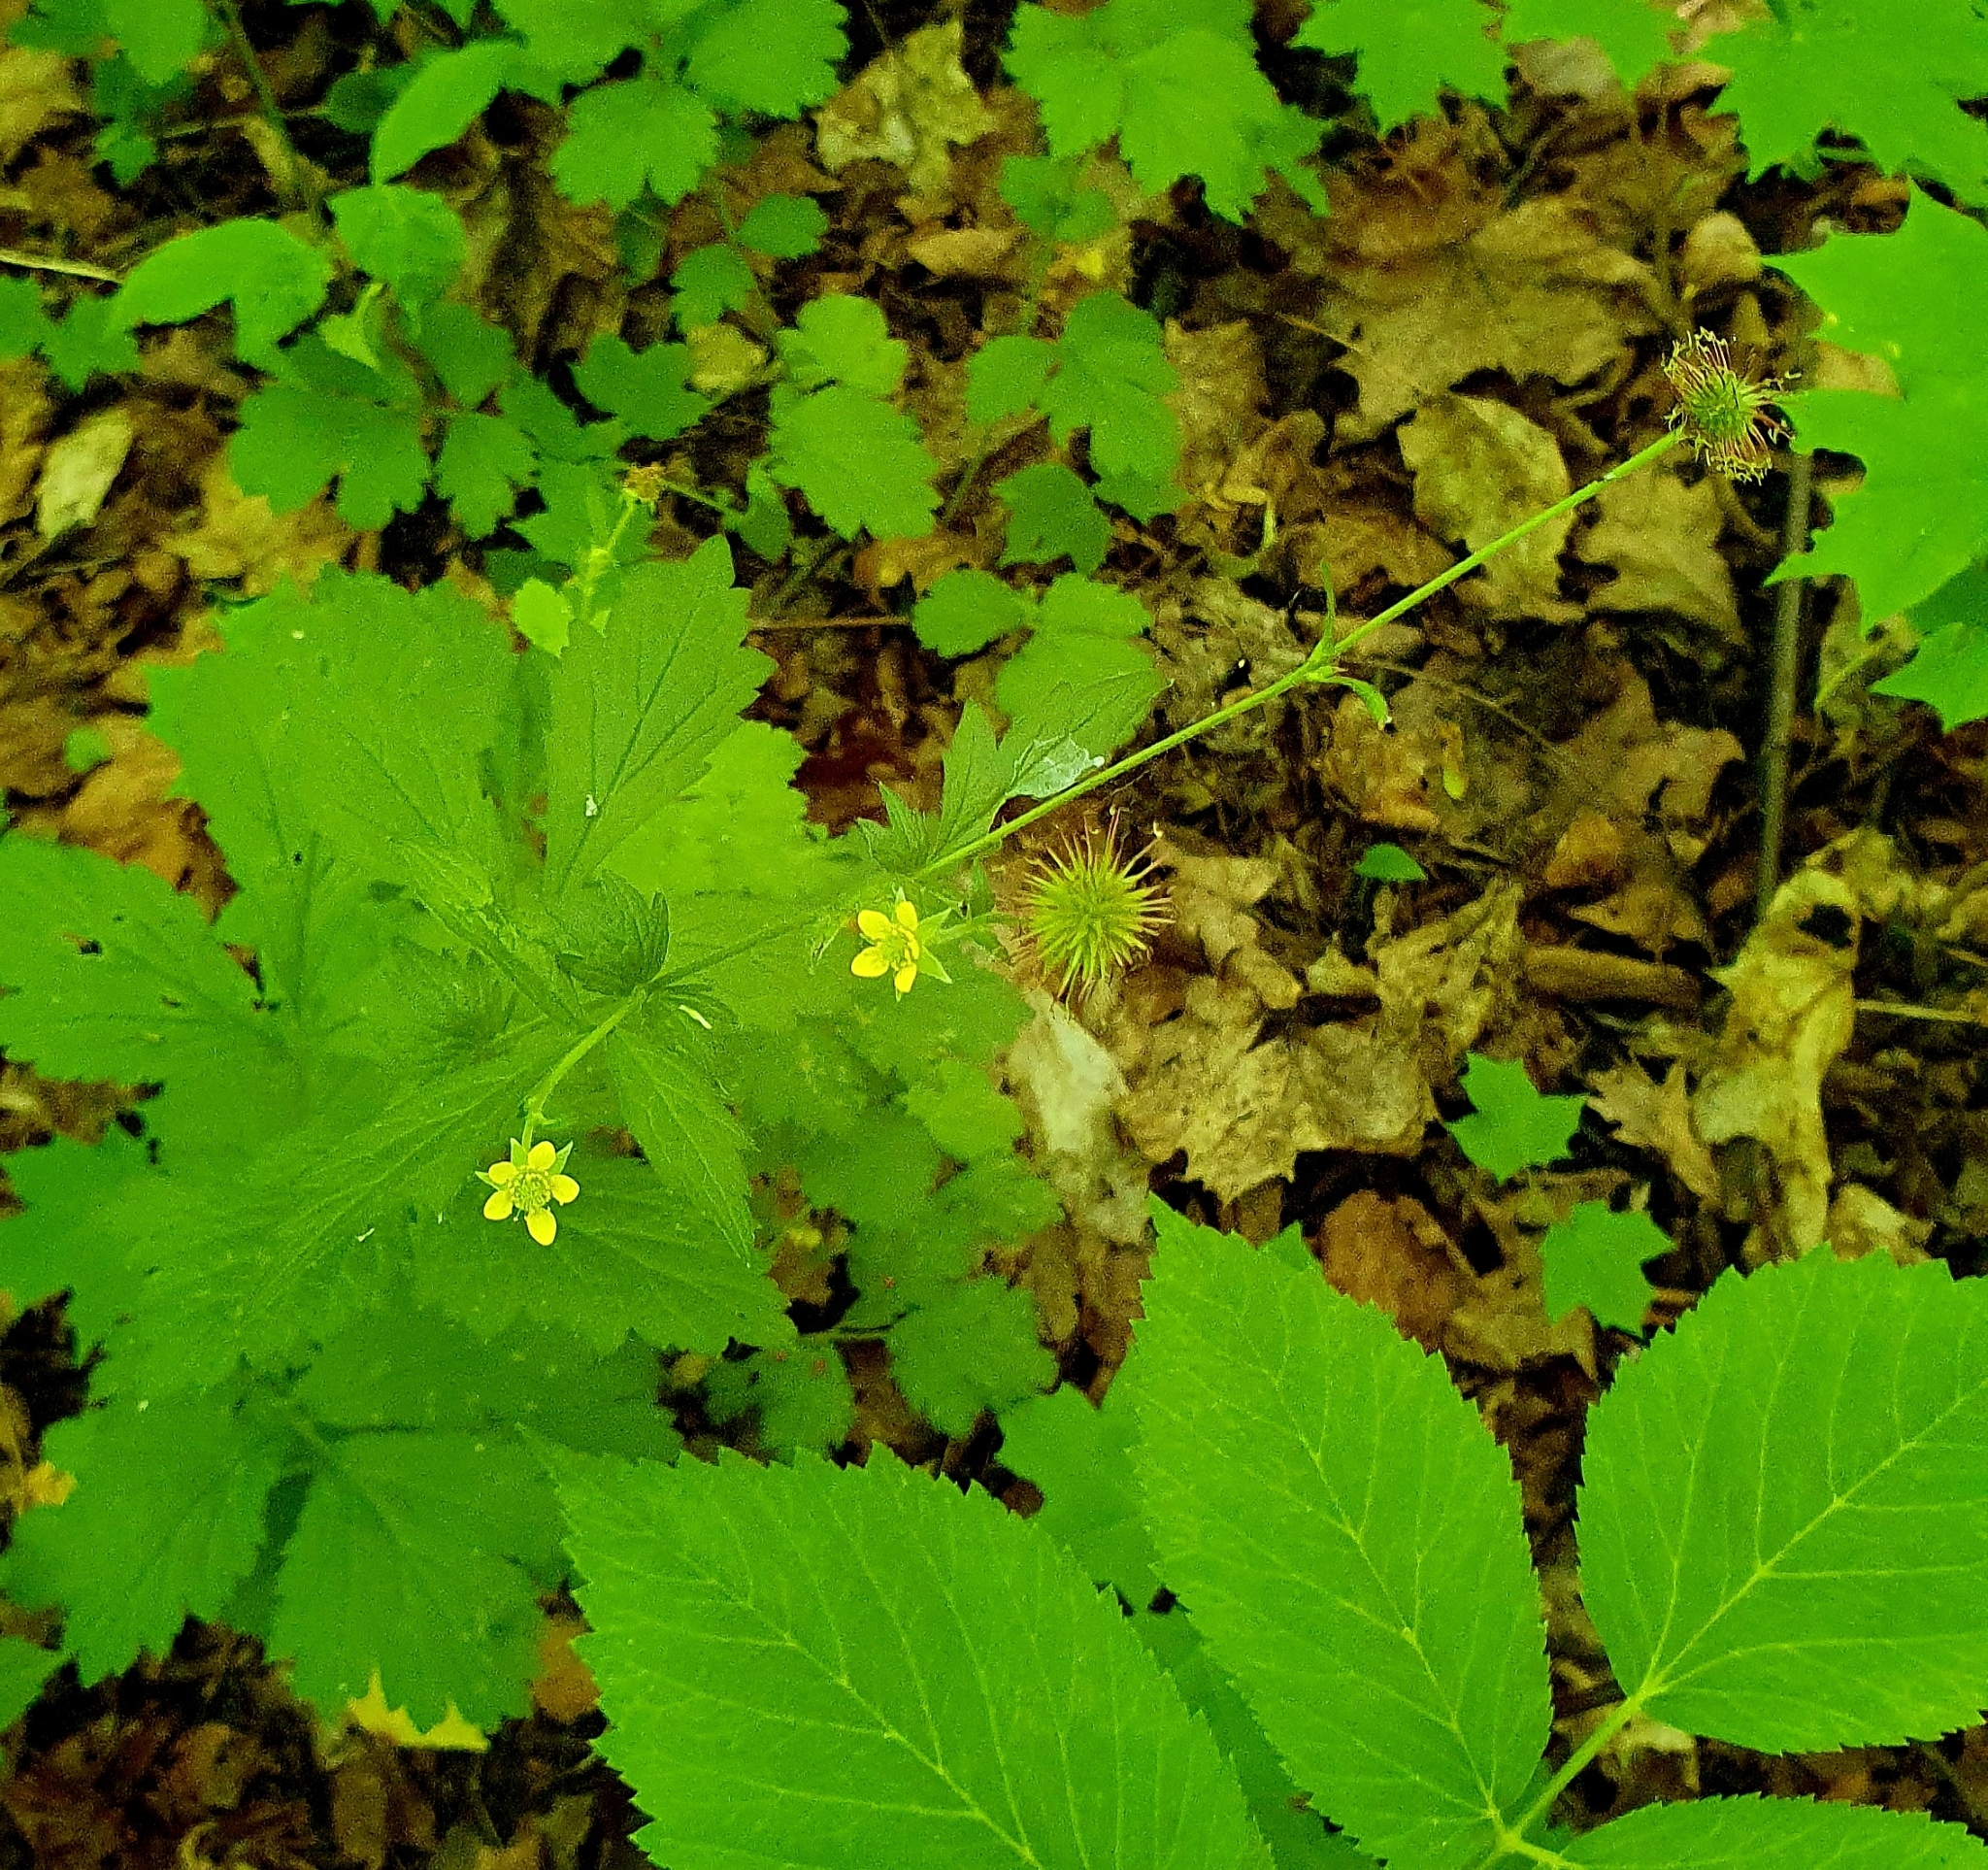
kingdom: Plantae
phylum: Tracheophyta
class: Magnoliopsida
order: Rosales
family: Rosaceae
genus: Geum
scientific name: Geum urbanum
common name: Wood avens
